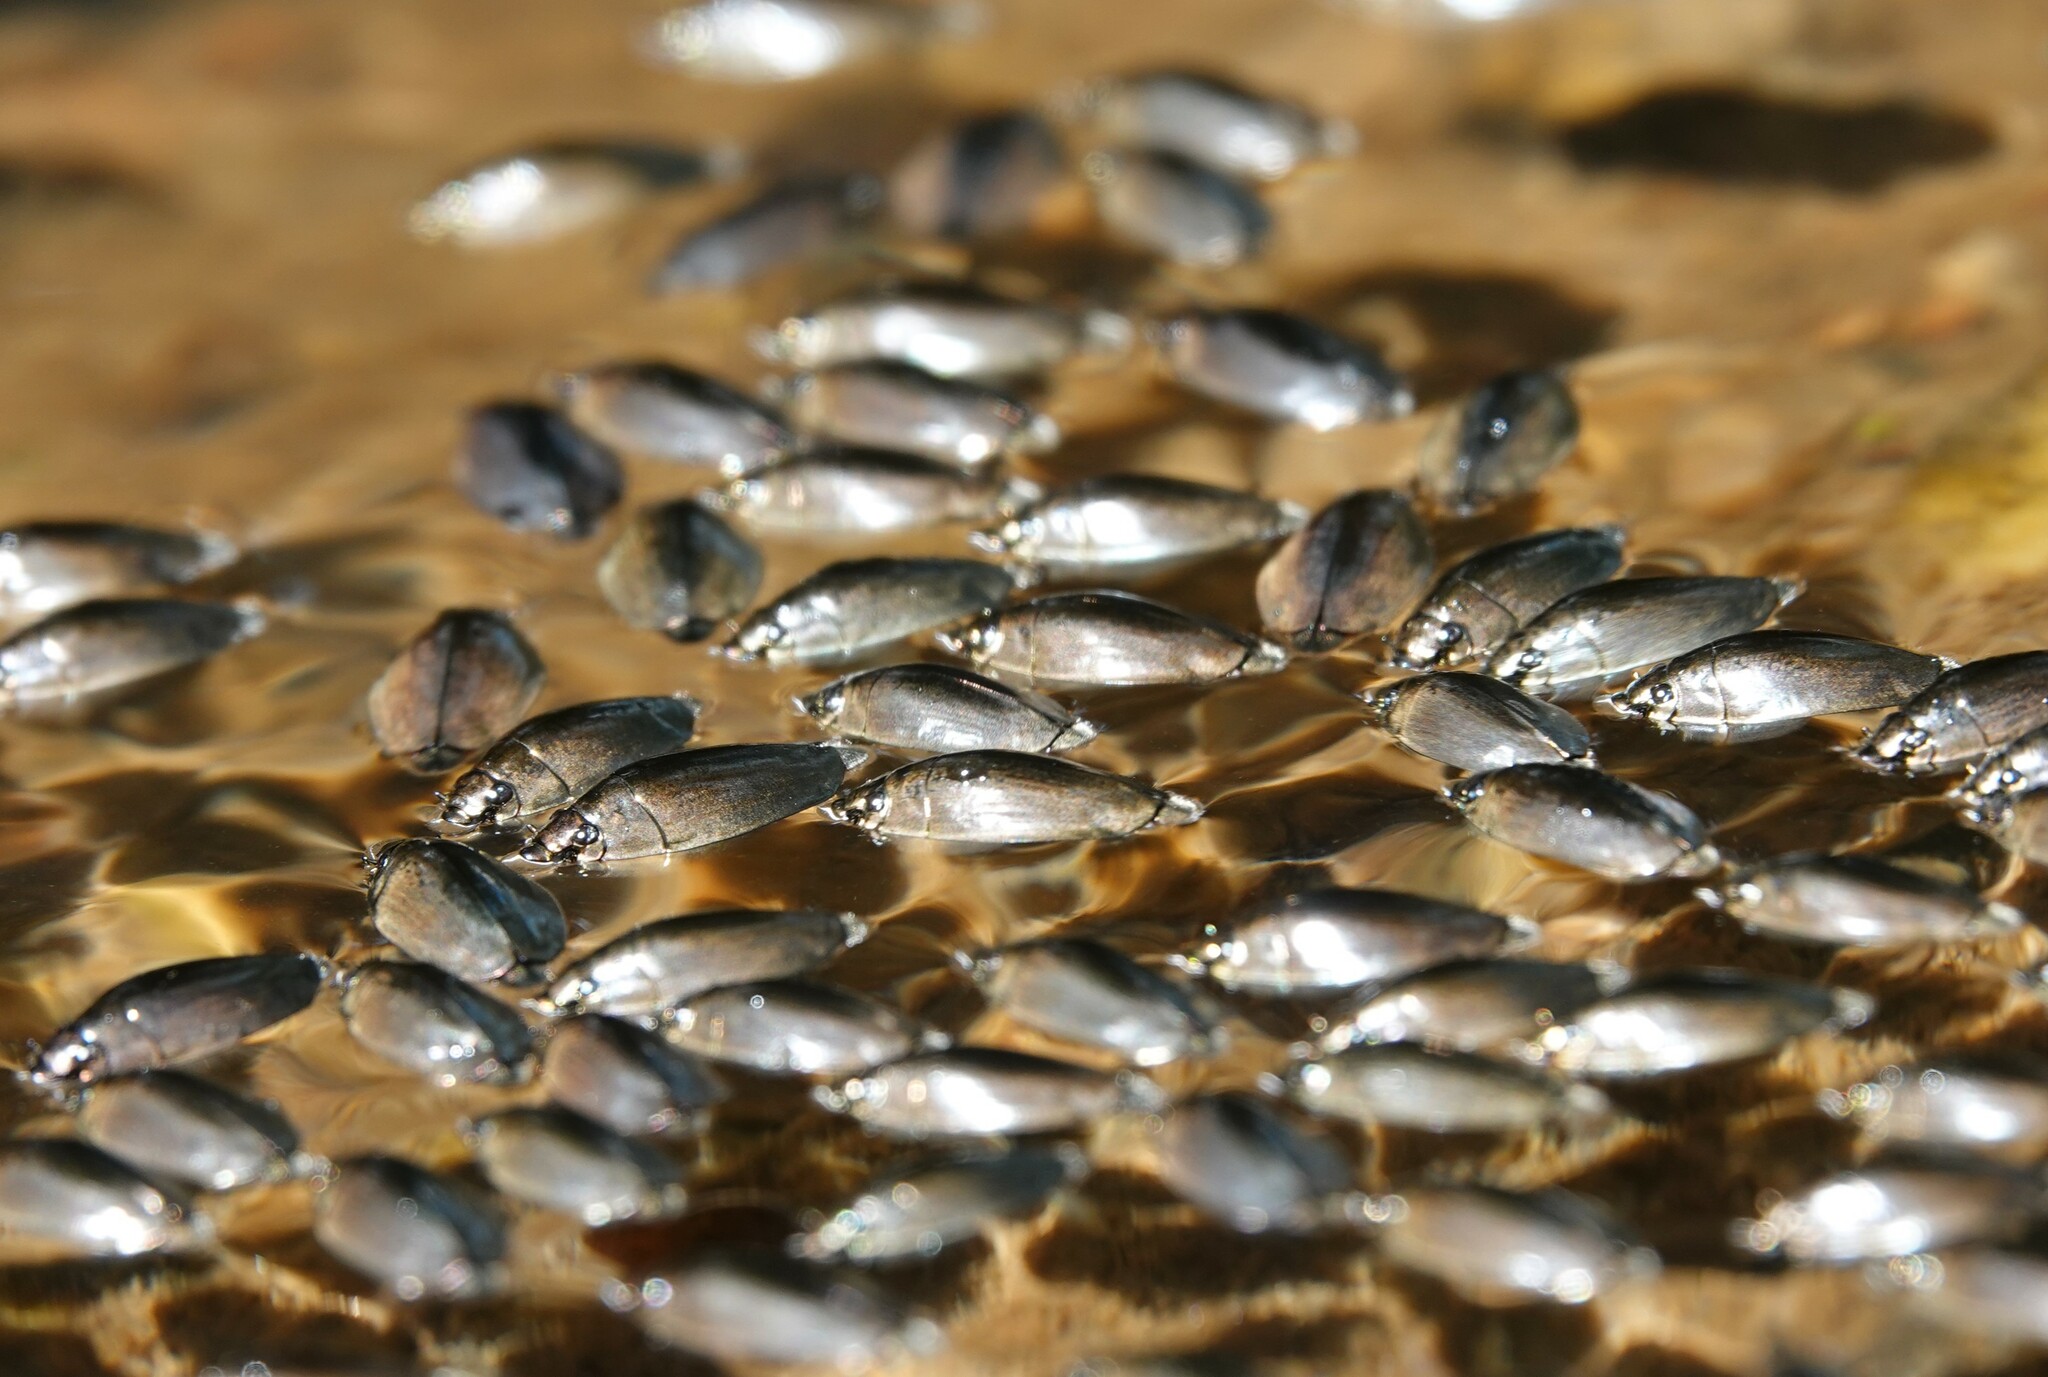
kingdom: Animalia
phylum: Arthropoda
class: Insecta
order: Coleoptera
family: Gyrinidae
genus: Dineutus
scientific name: Dineutus
